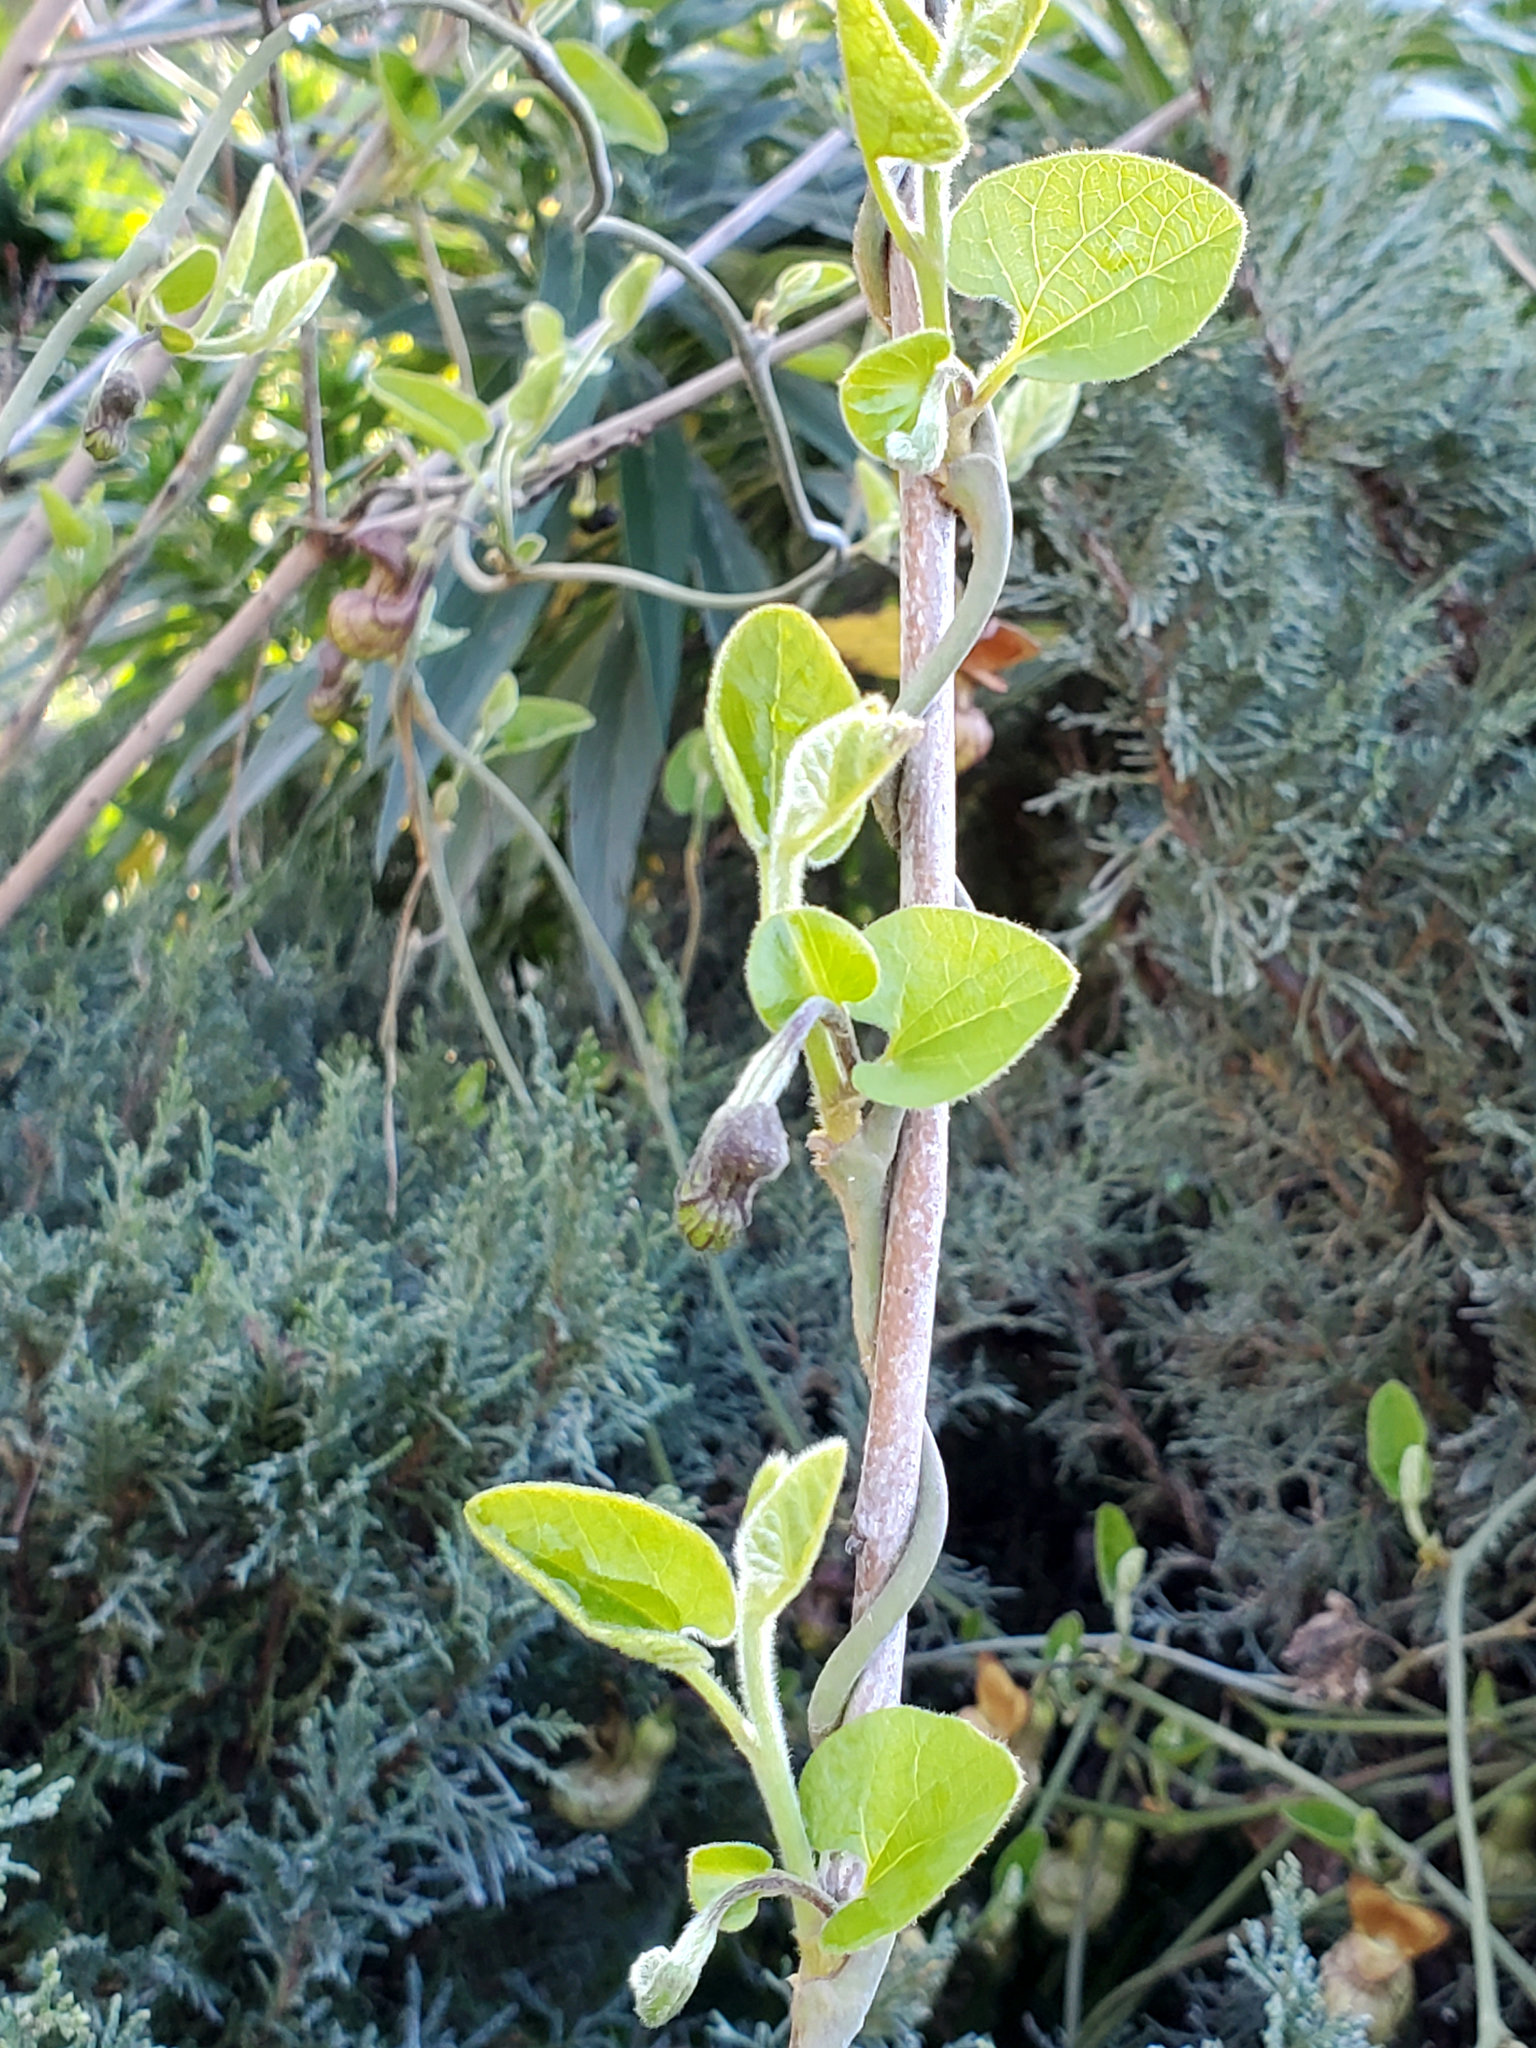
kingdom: Plantae
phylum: Tracheophyta
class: Magnoliopsida
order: Piperales
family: Aristolochiaceae
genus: Isotrema
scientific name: Isotrema californicum
